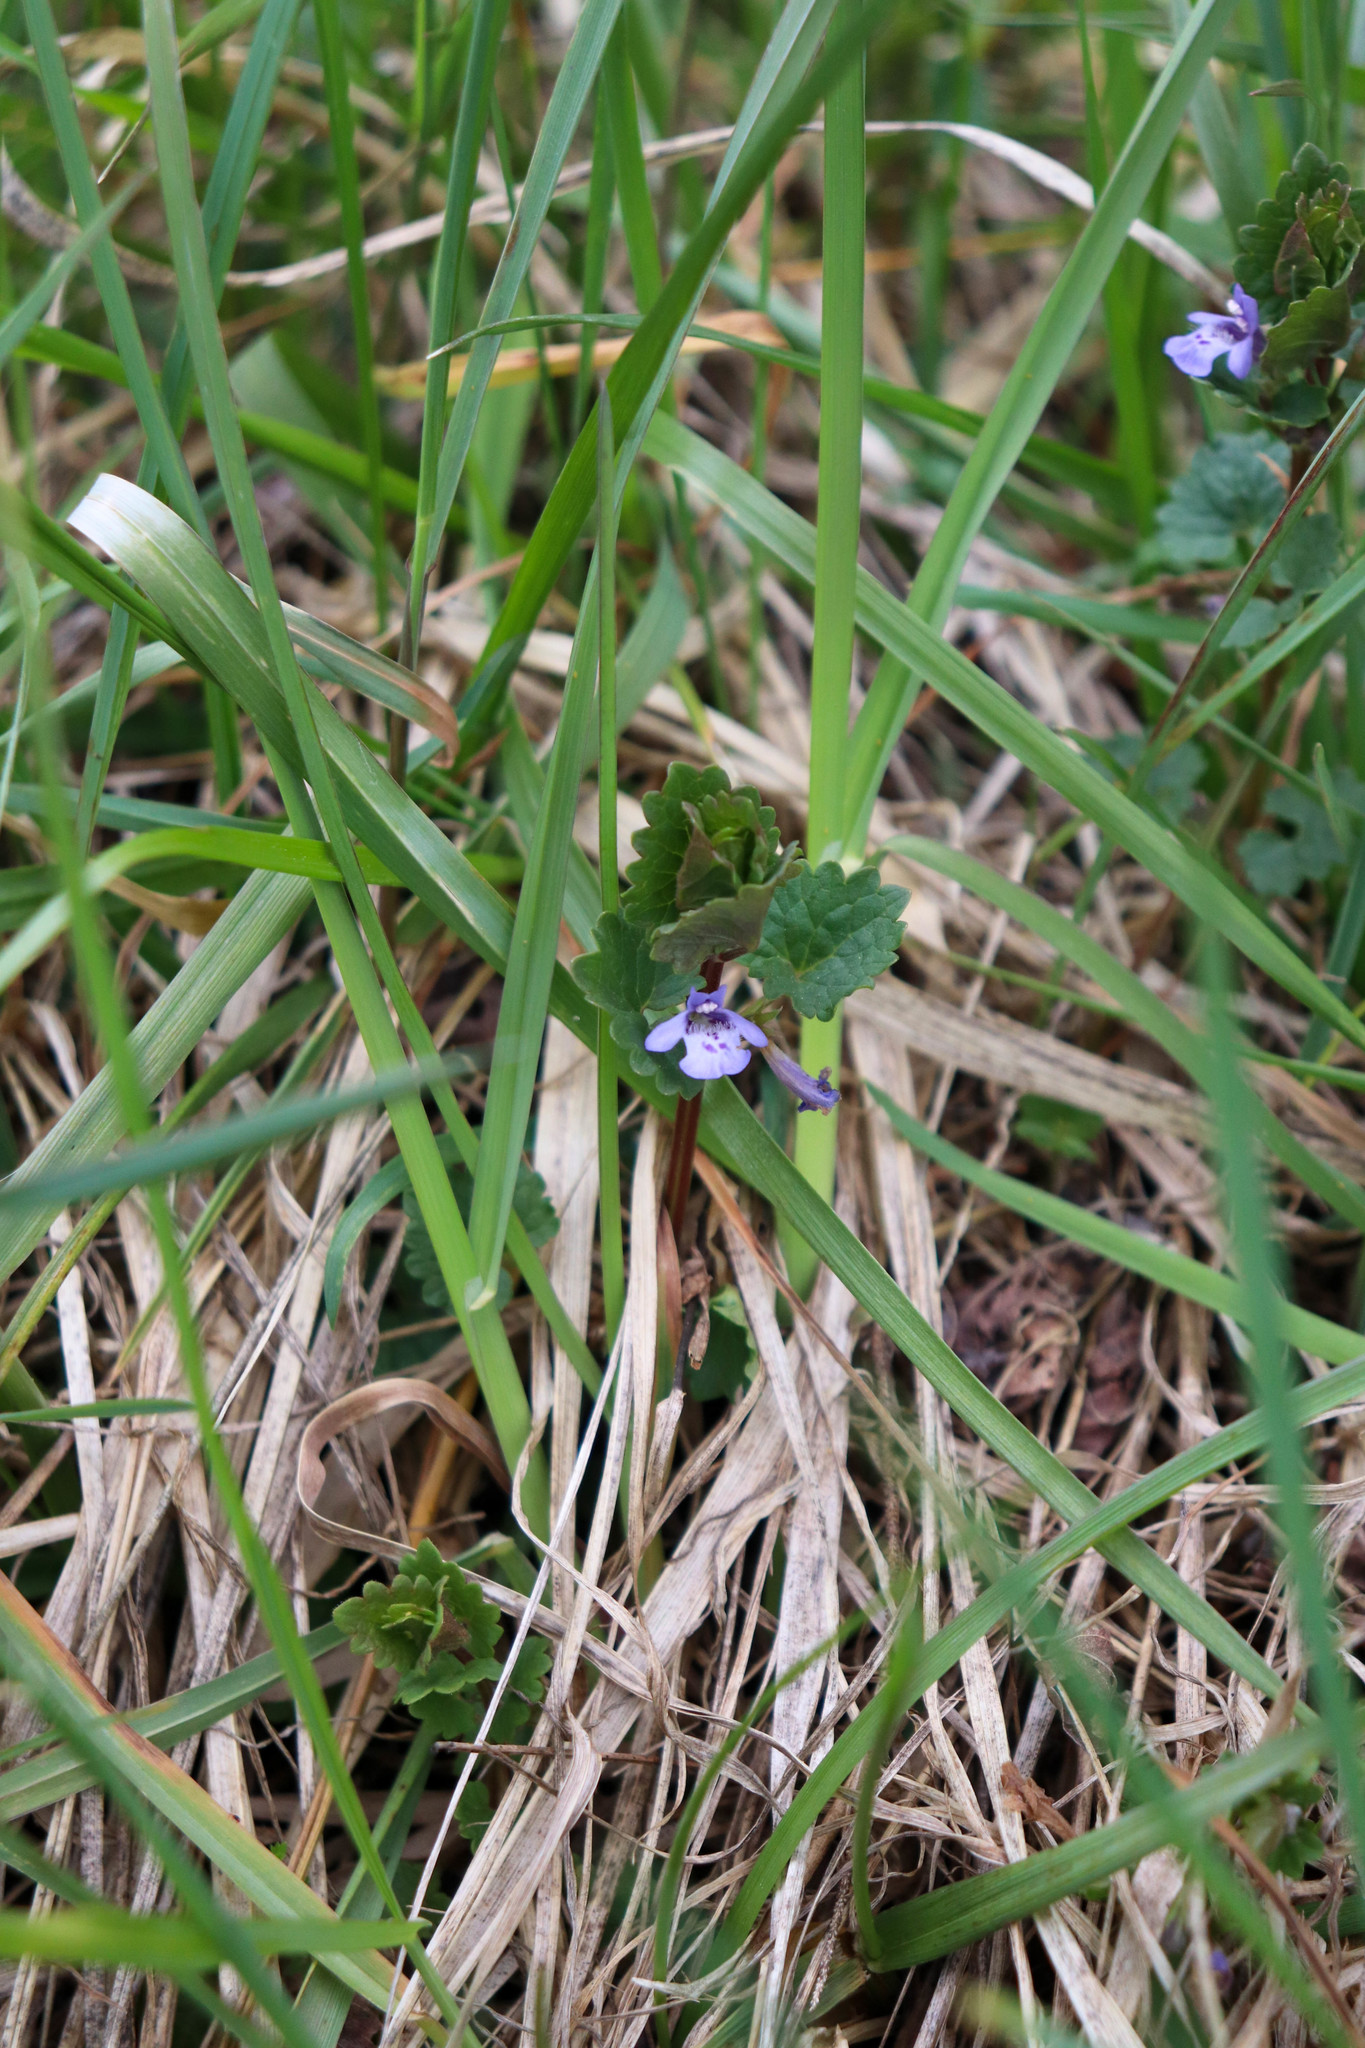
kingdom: Plantae
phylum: Tracheophyta
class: Magnoliopsida
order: Lamiales
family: Lamiaceae
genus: Glechoma
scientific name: Glechoma hederacea
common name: Ground ivy
